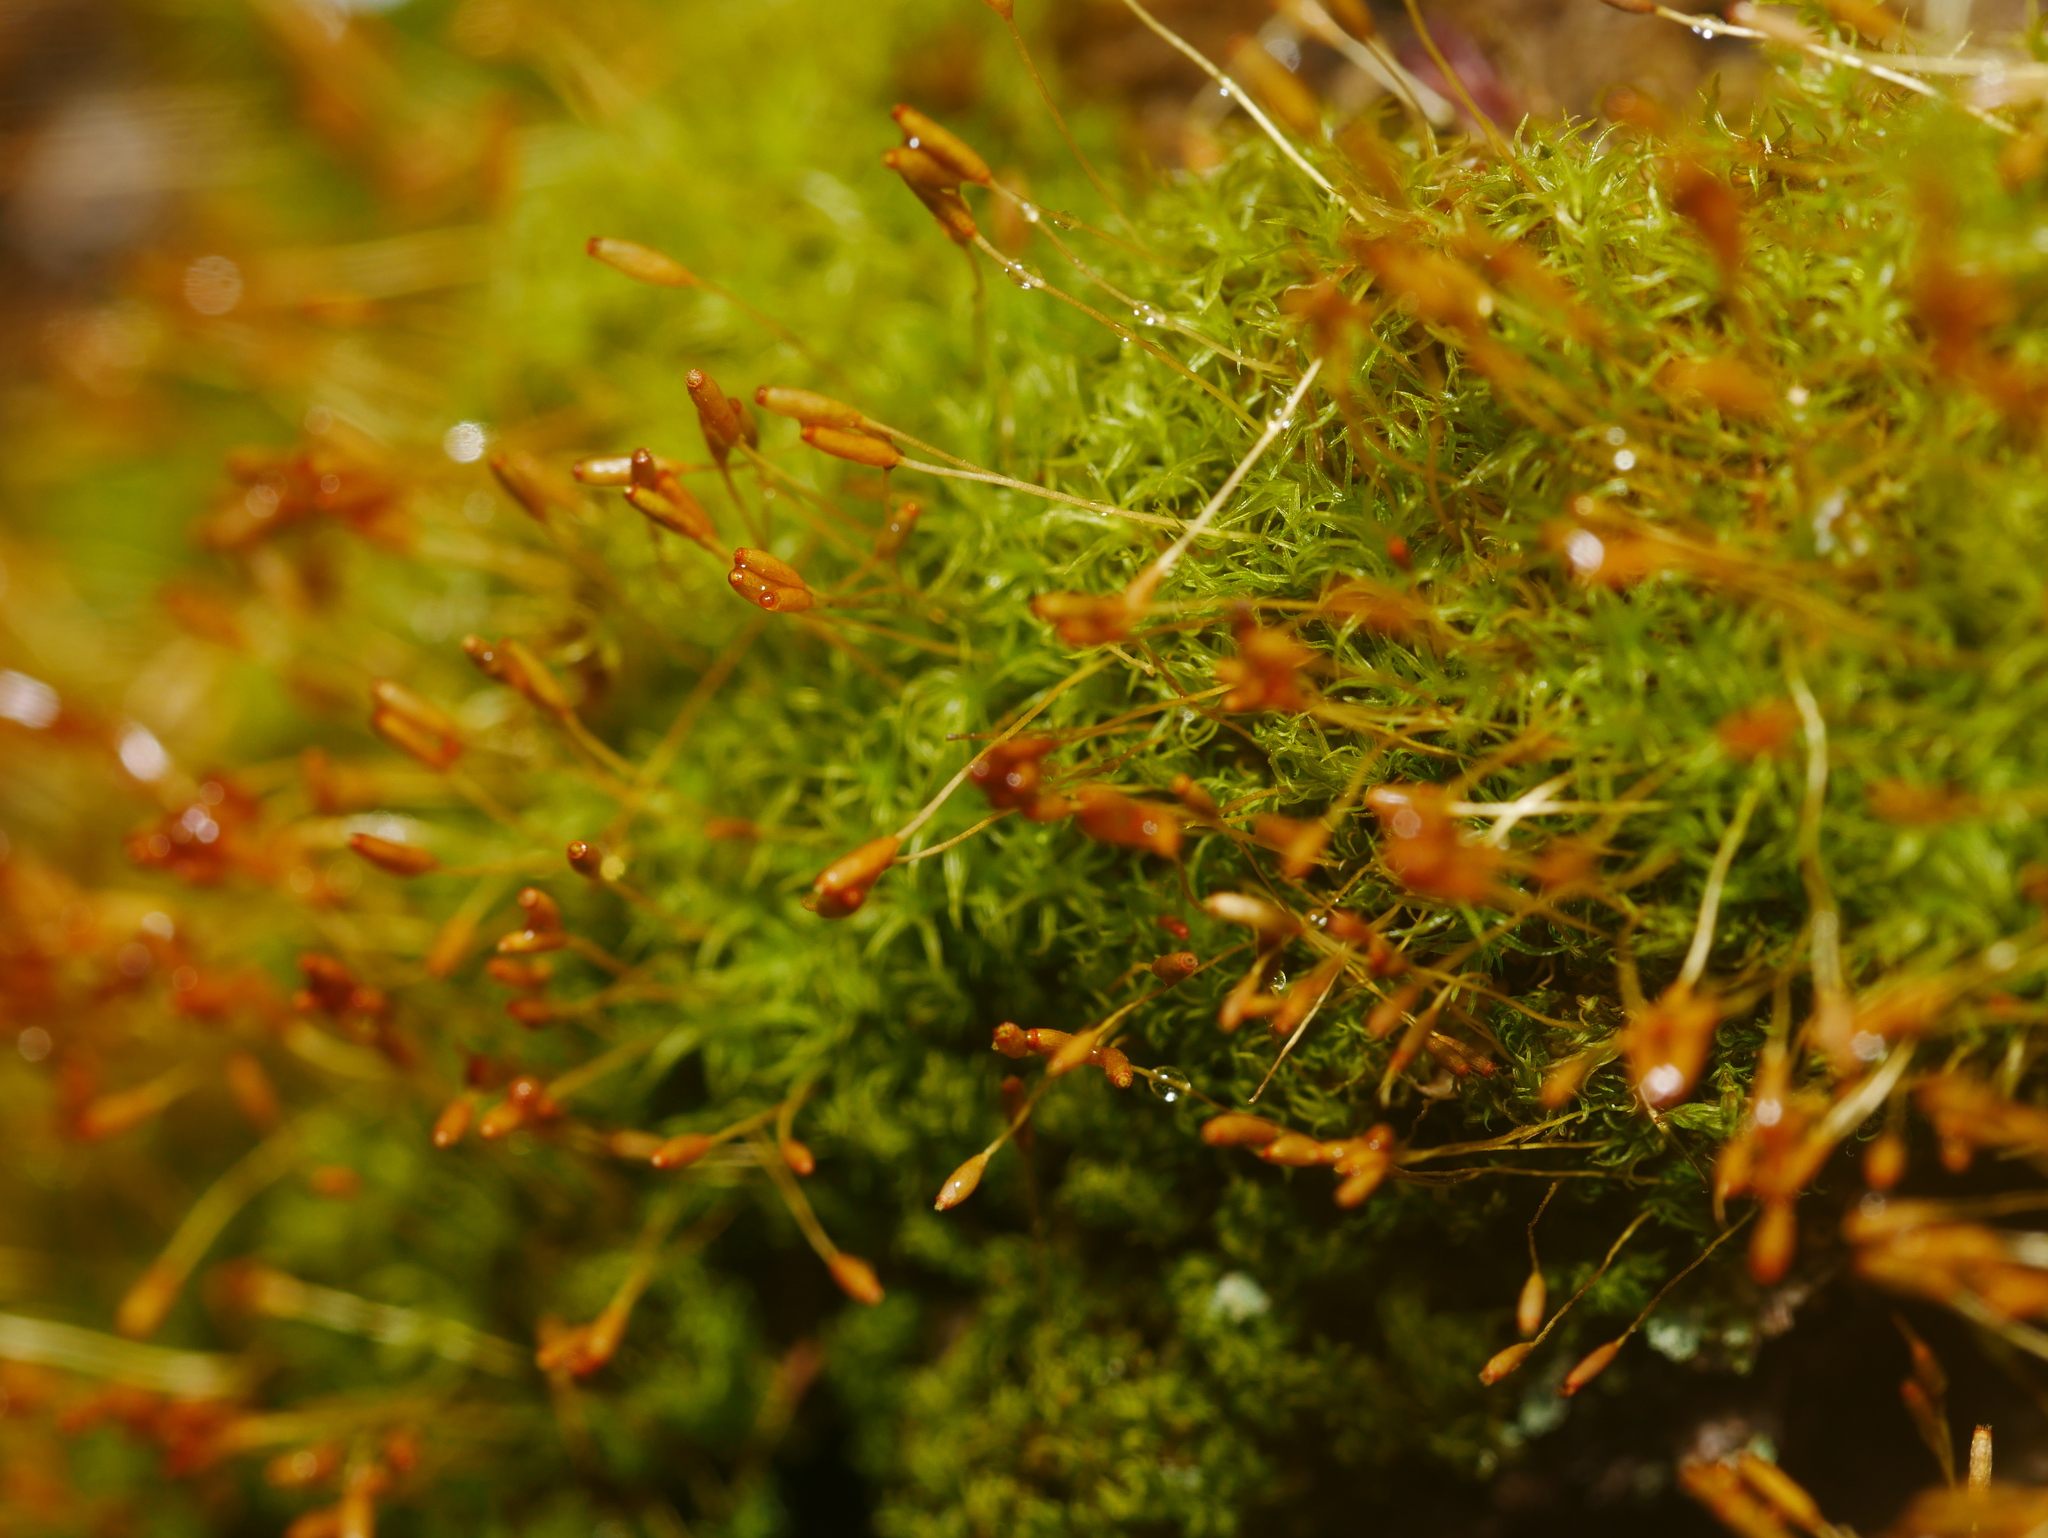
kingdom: Plantae
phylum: Bryophyta
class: Bryopsida
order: Dicranales
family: Rhabdoweisiaceae
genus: Dicranoweisia
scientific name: Dicranoweisia cirrata
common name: Common pincushion
